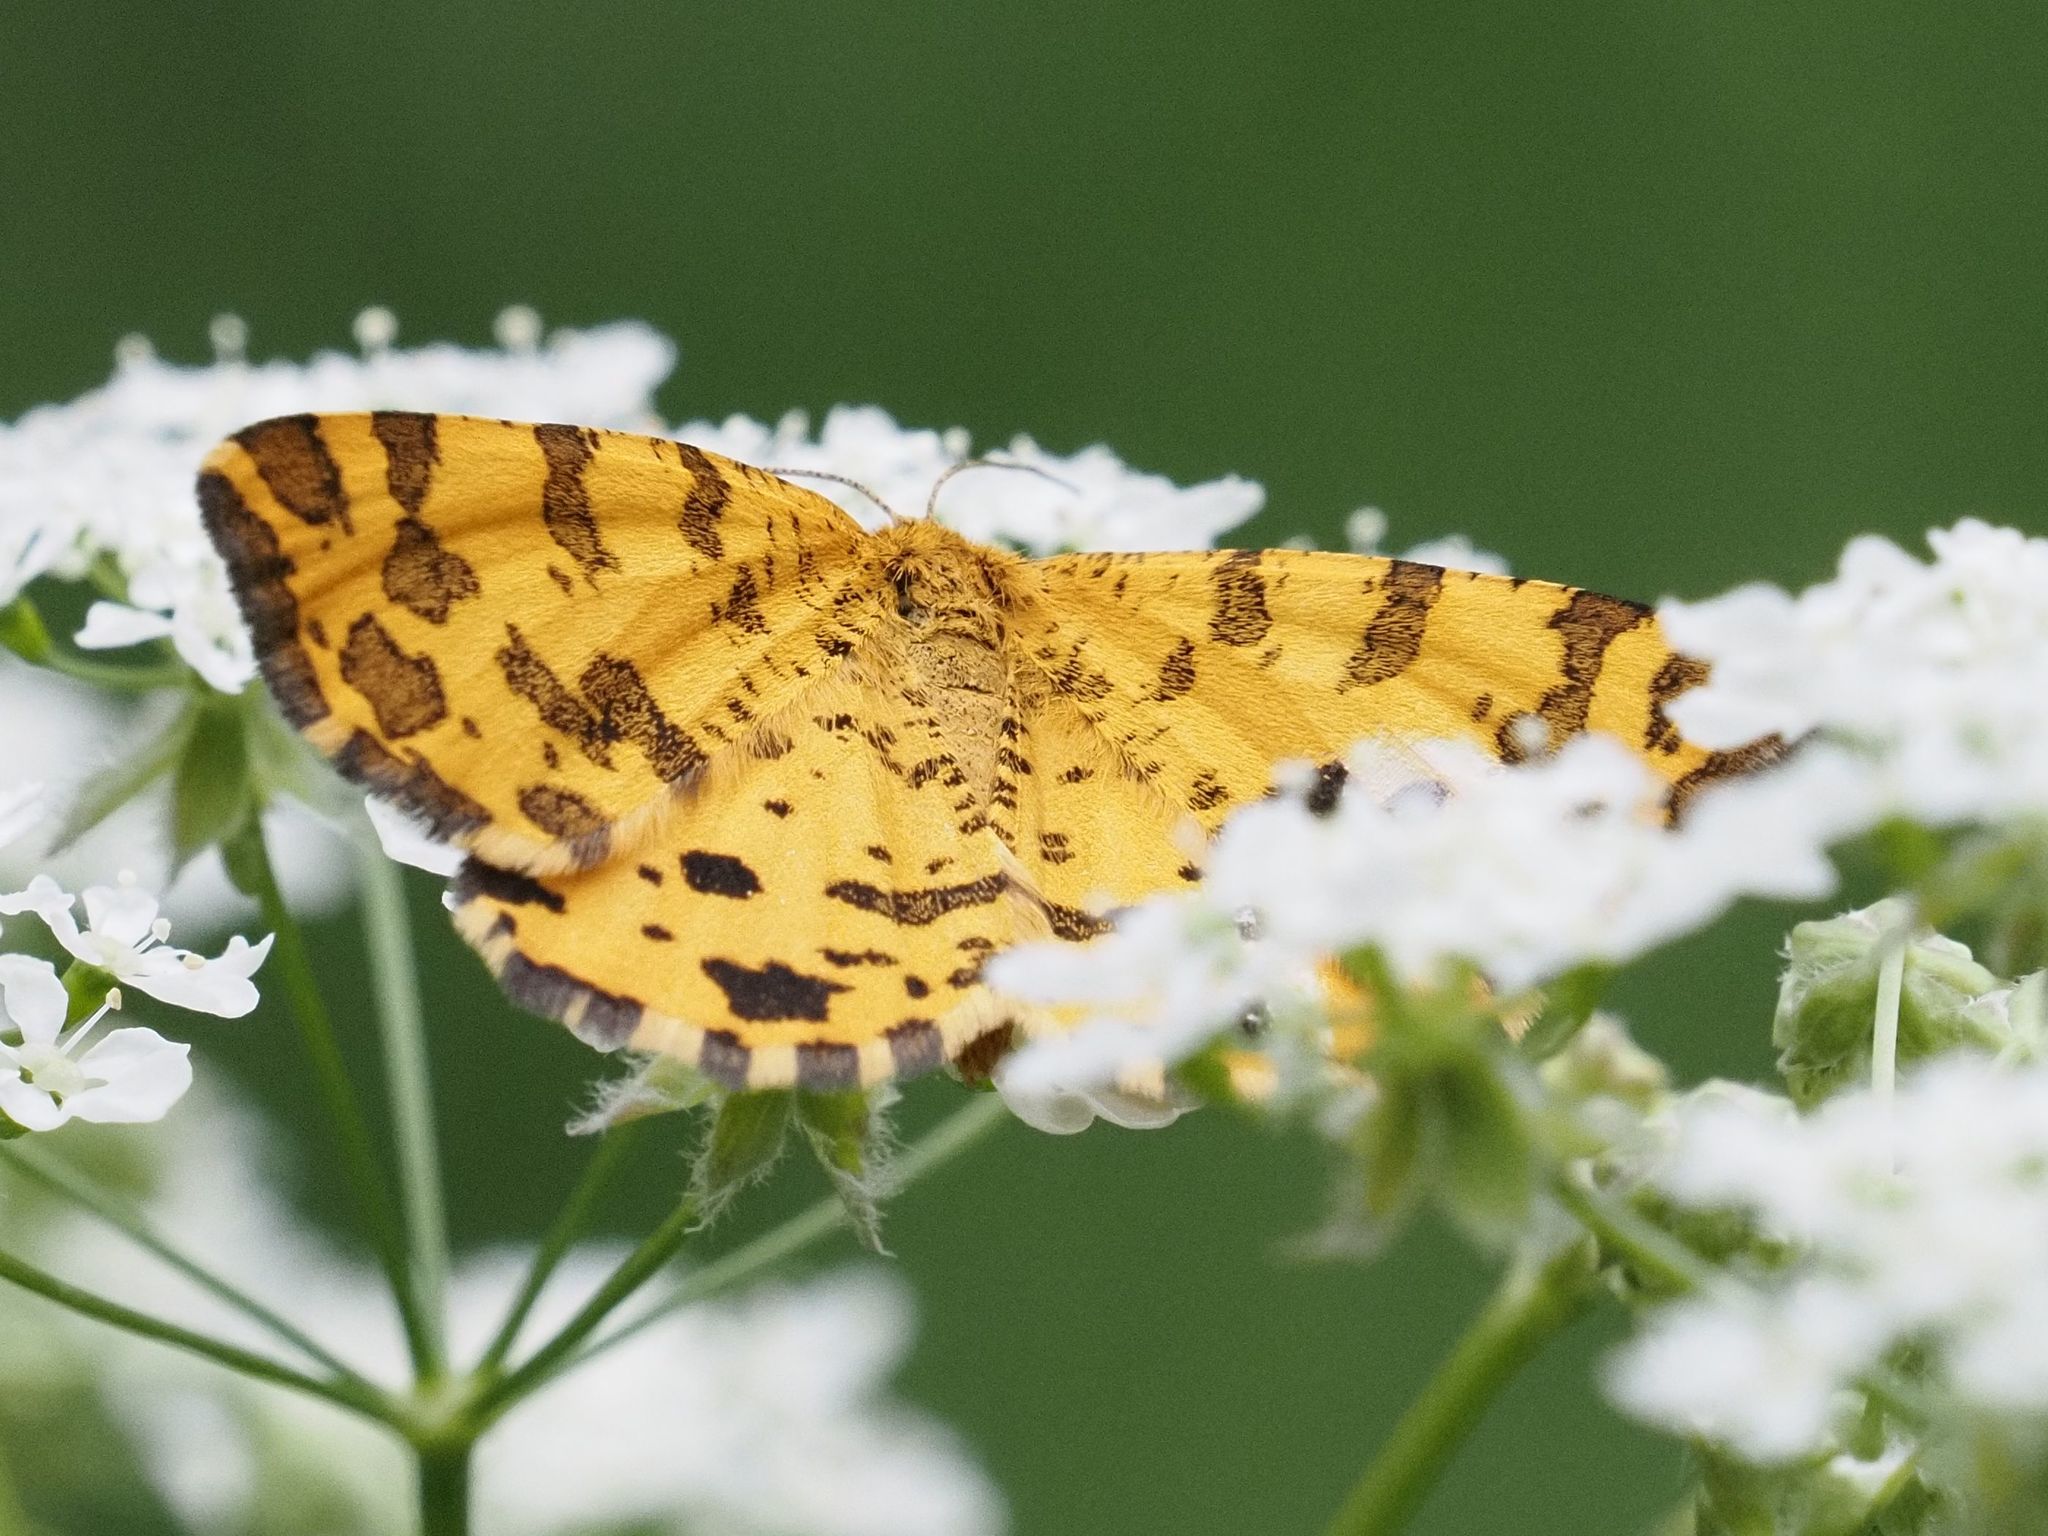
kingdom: Animalia
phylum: Arthropoda
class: Insecta
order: Lepidoptera
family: Geometridae
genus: Pseudopanthera
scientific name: Pseudopanthera macularia
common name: Speckled yellow
